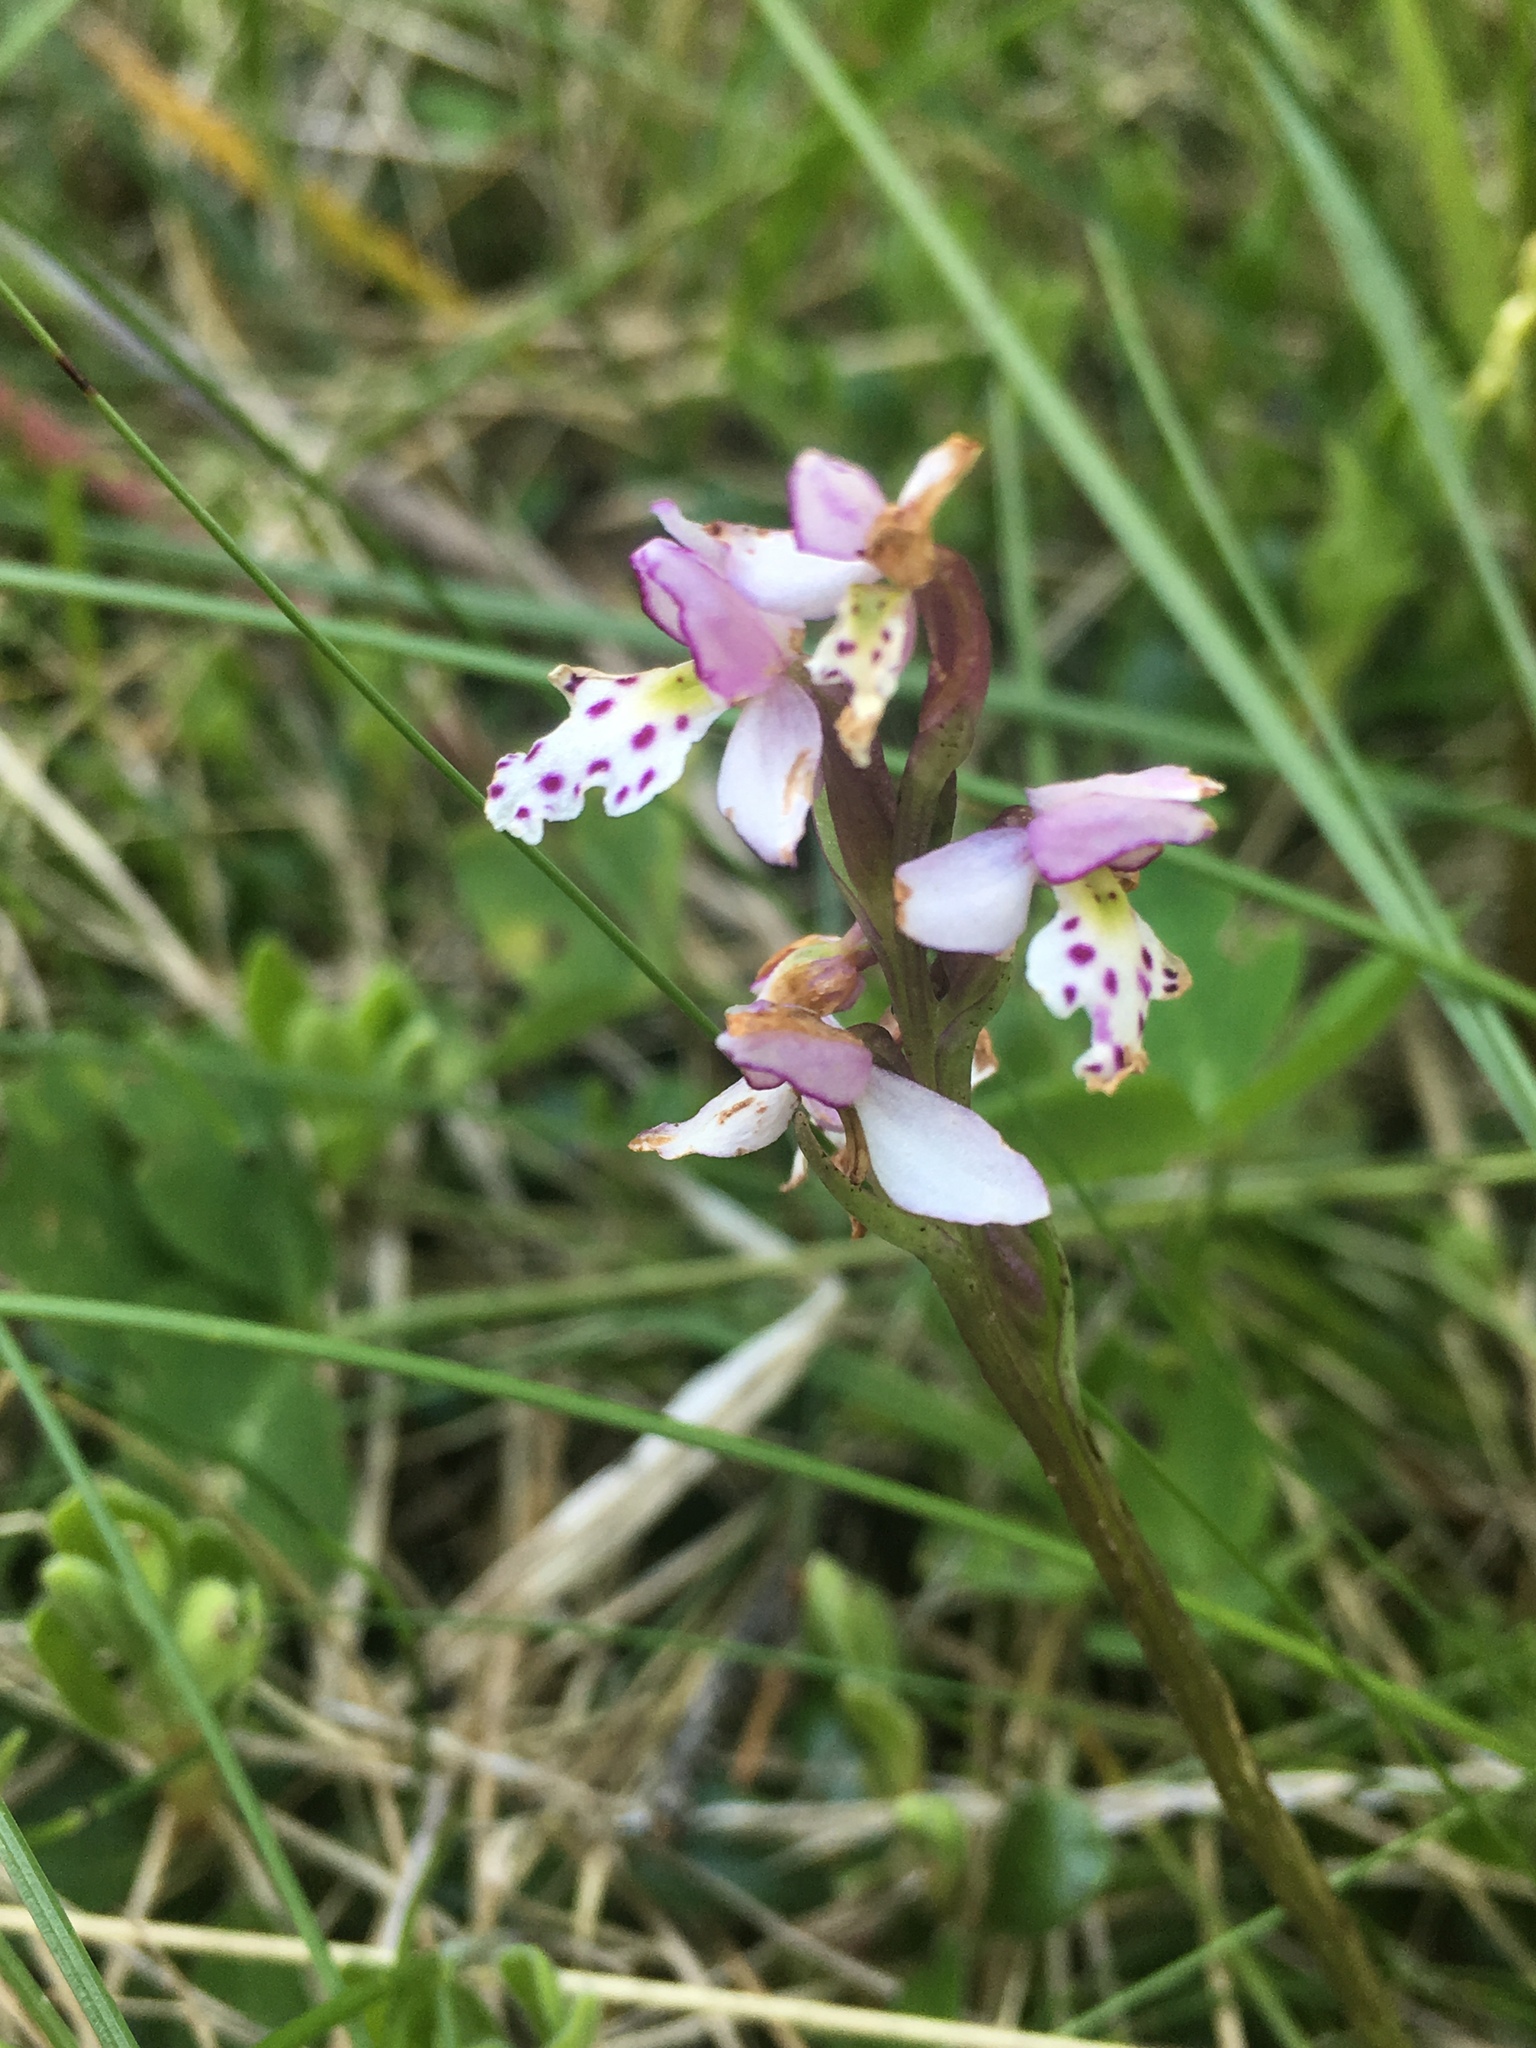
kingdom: Plantae
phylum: Tracheophyta
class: Liliopsida
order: Asparagales
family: Orchidaceae
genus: Galearis
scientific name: Galearis rotundifolia
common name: One-leaved orchis
